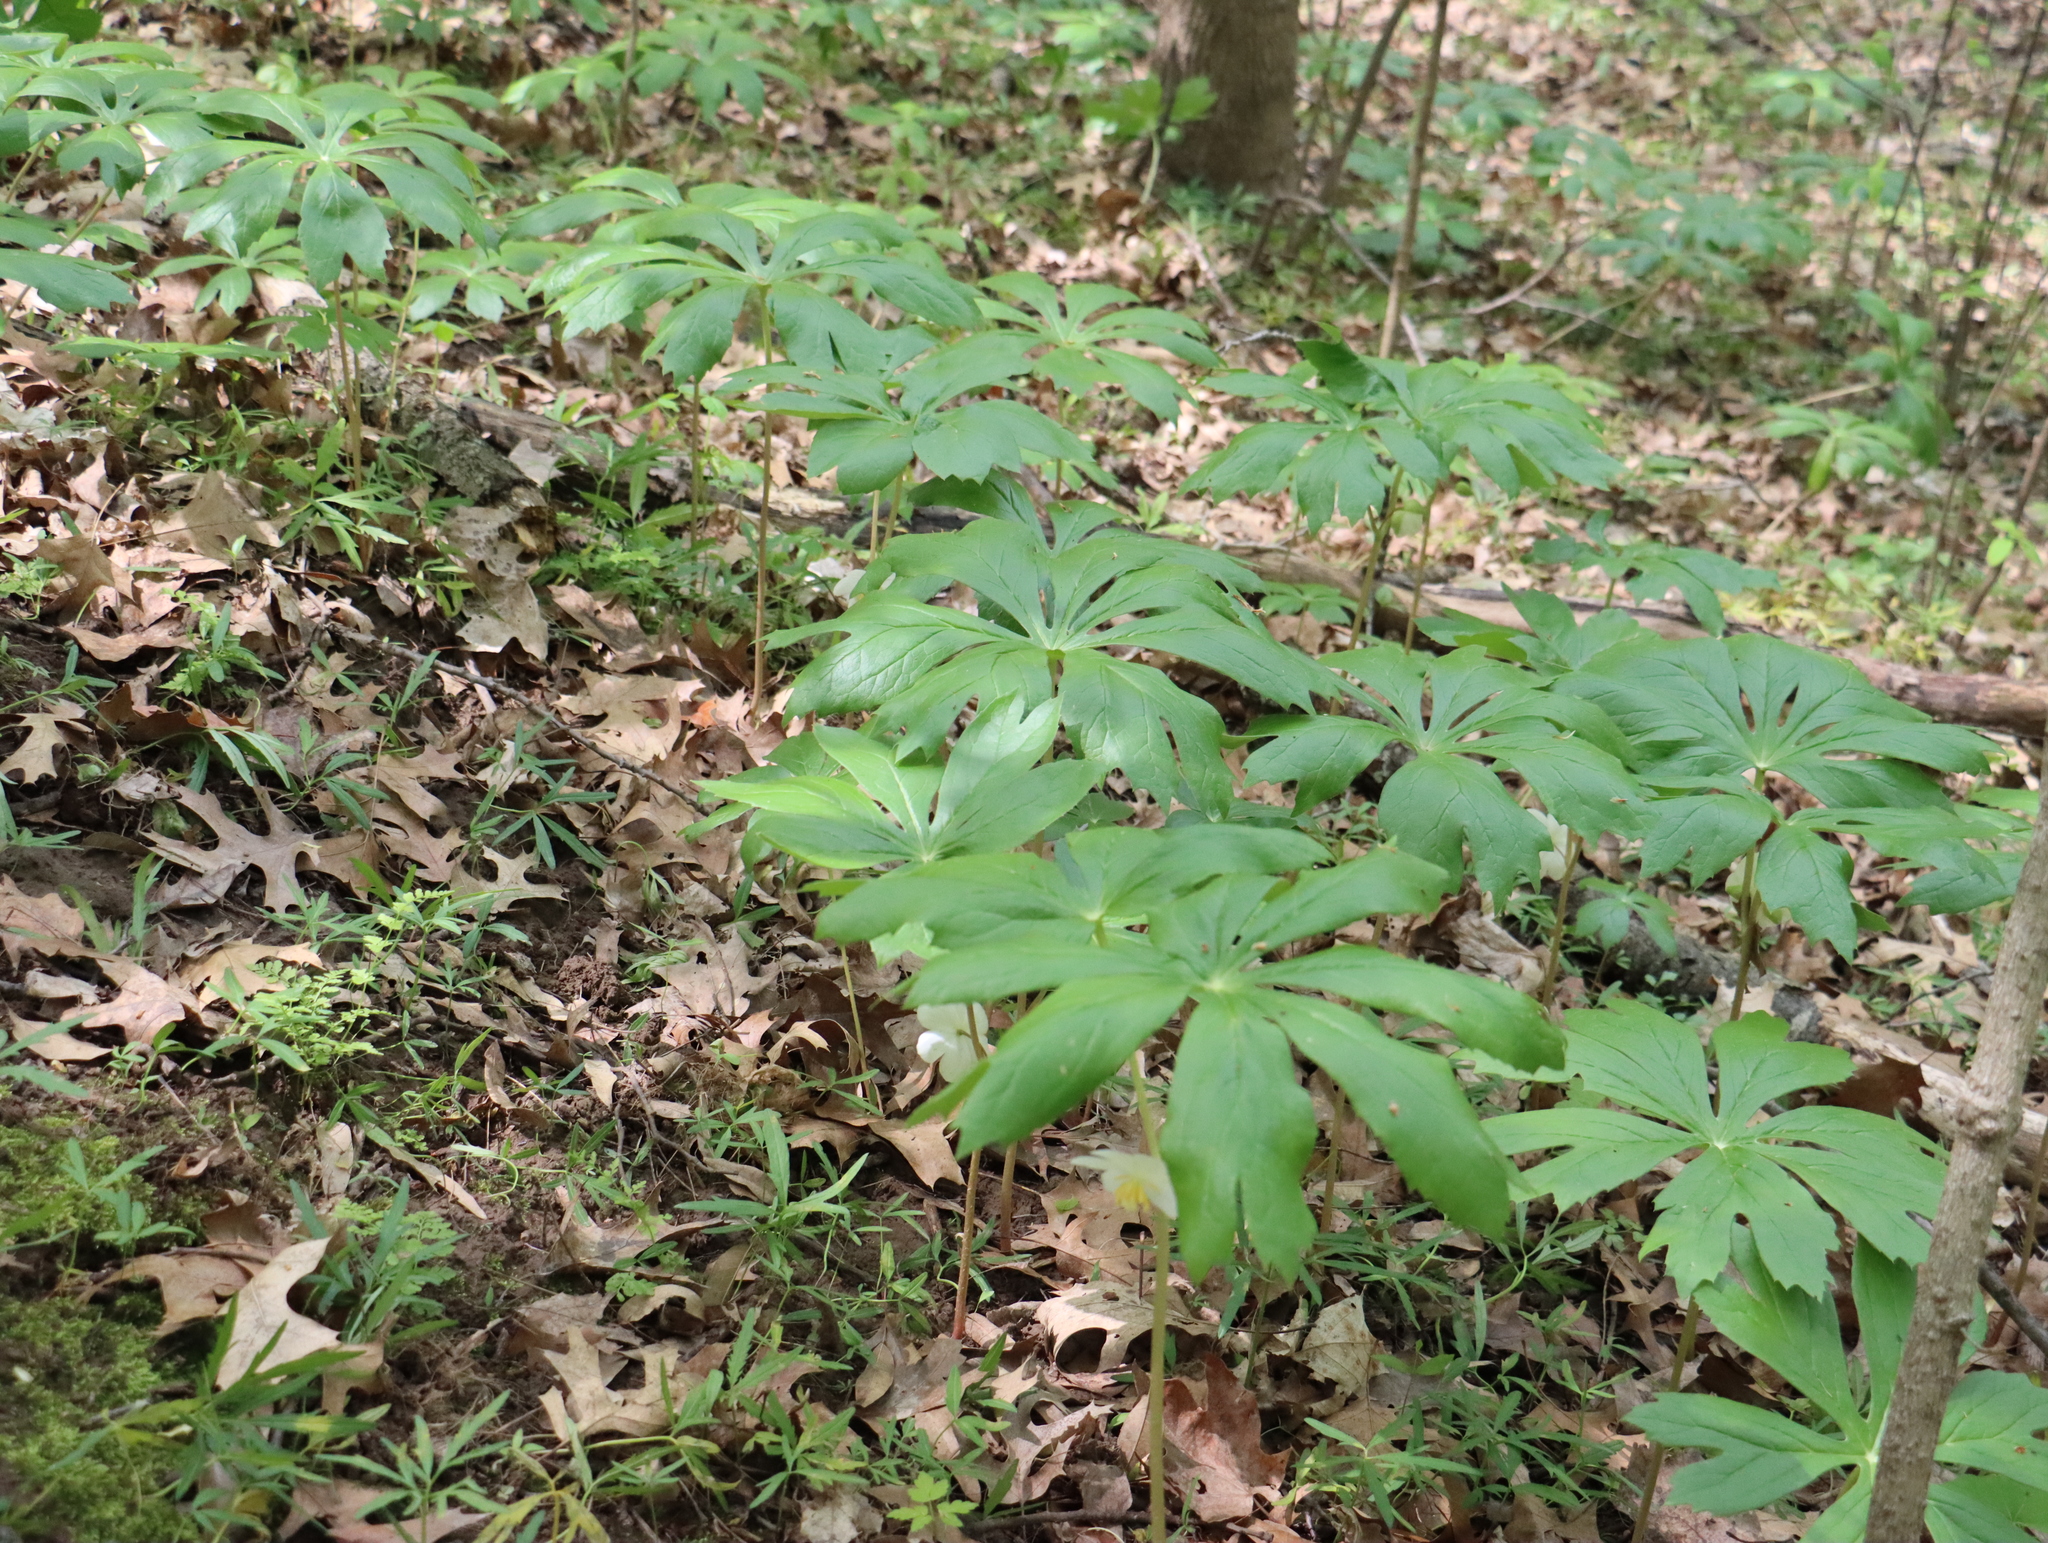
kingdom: Plantae
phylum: Tracheophyta
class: Magnoliopsida
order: Ranunculales
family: Berberidaceae
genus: Podophyllum
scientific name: Podophyllum peltatum
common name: Wild mandrake
